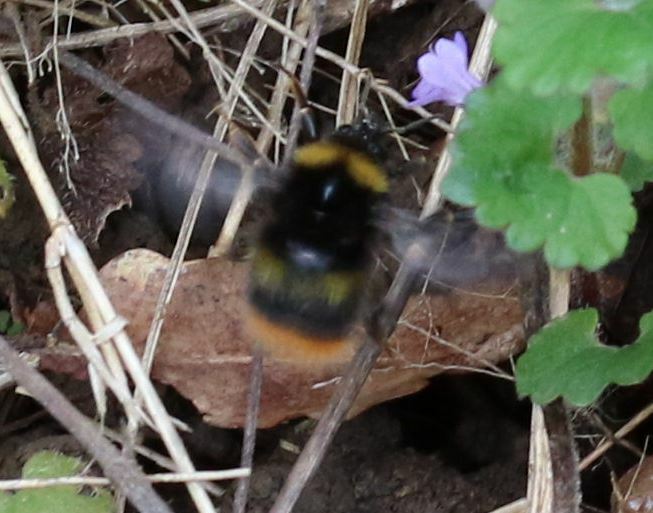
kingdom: Animalia
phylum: Arthropoda
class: Insecta
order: Hymenoptera
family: Apidae
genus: Bombus
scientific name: Bombus pratorum
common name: Early humble-bee
